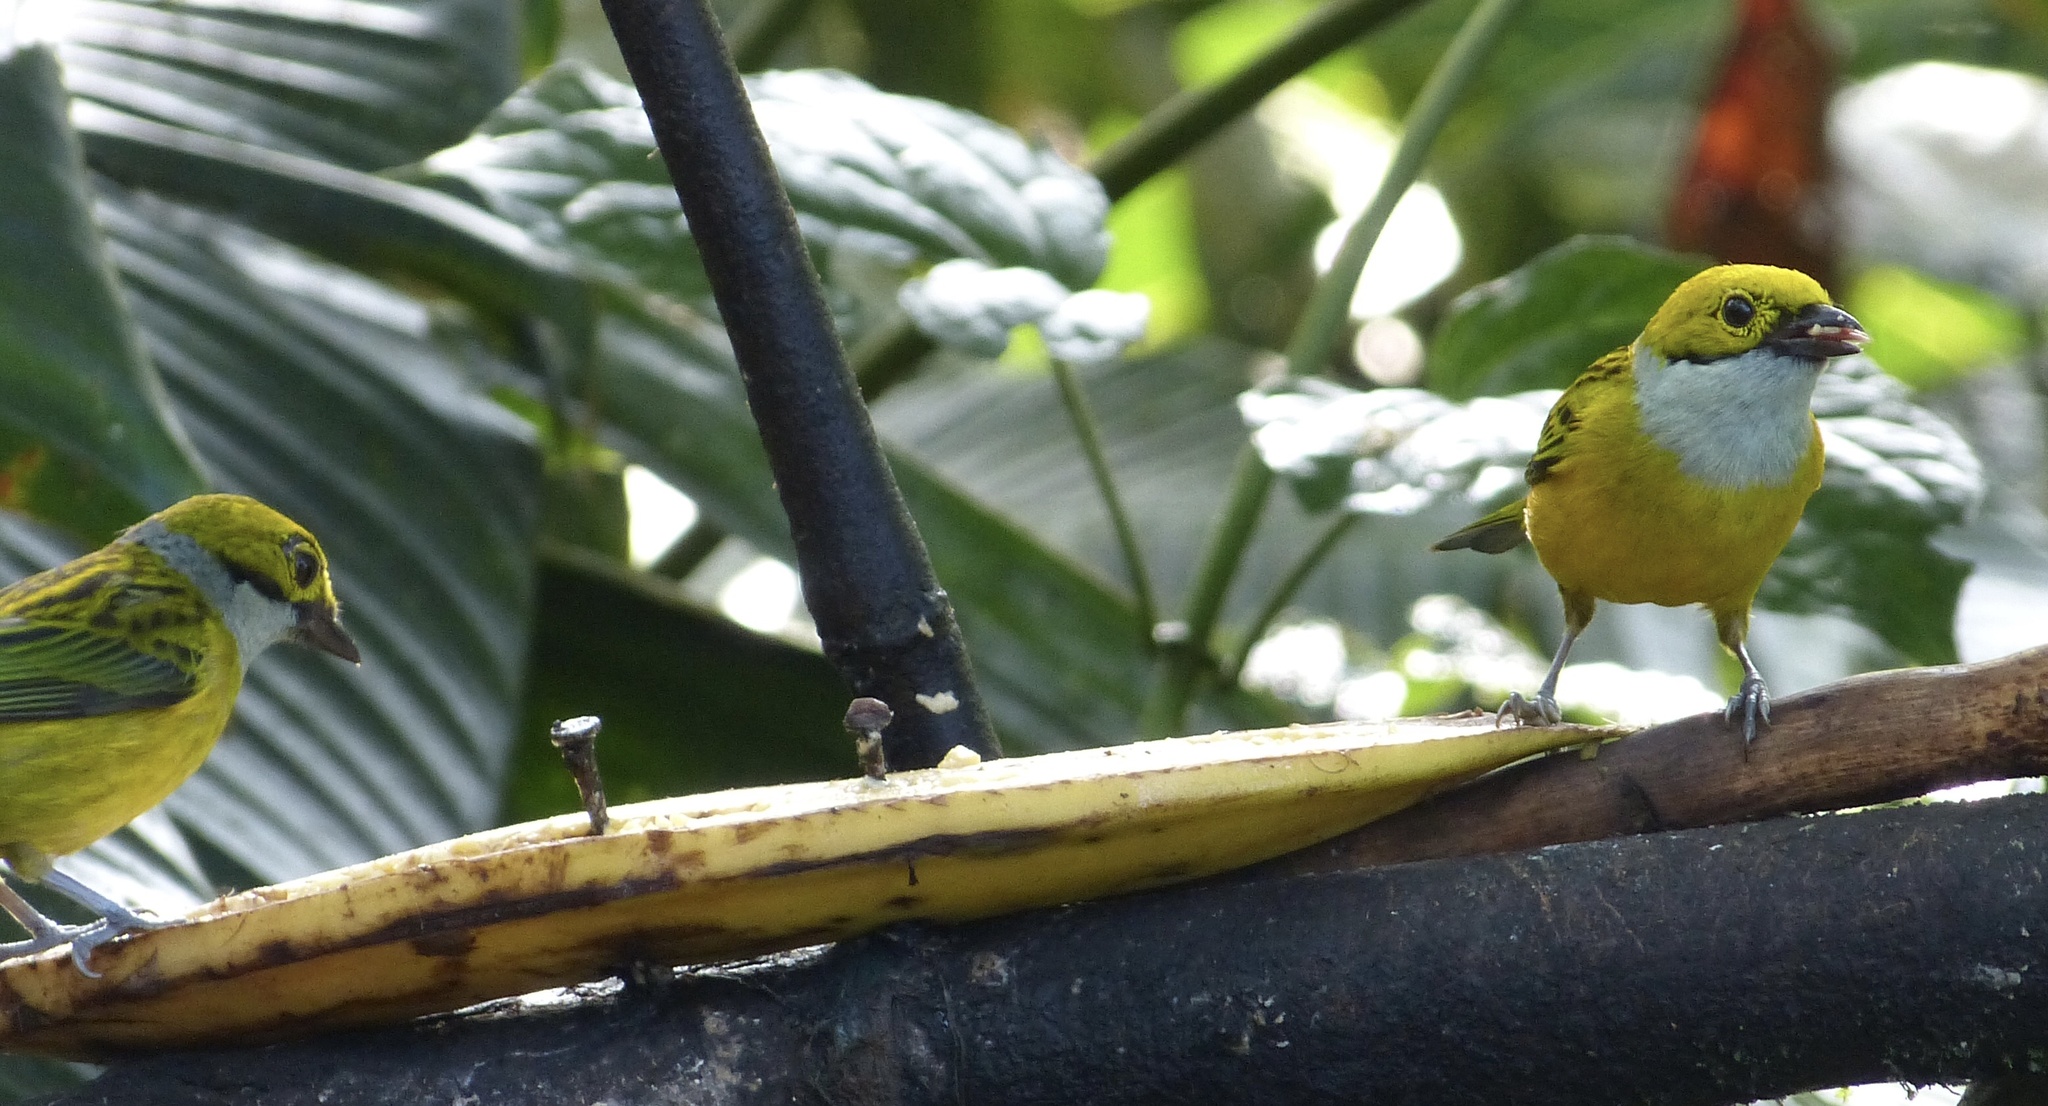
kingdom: Animalia
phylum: Chordata
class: Aves
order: Passeriformes
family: Thraupidae
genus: Tangara
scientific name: Tangara icterocephala
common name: Silver-throated tanager
